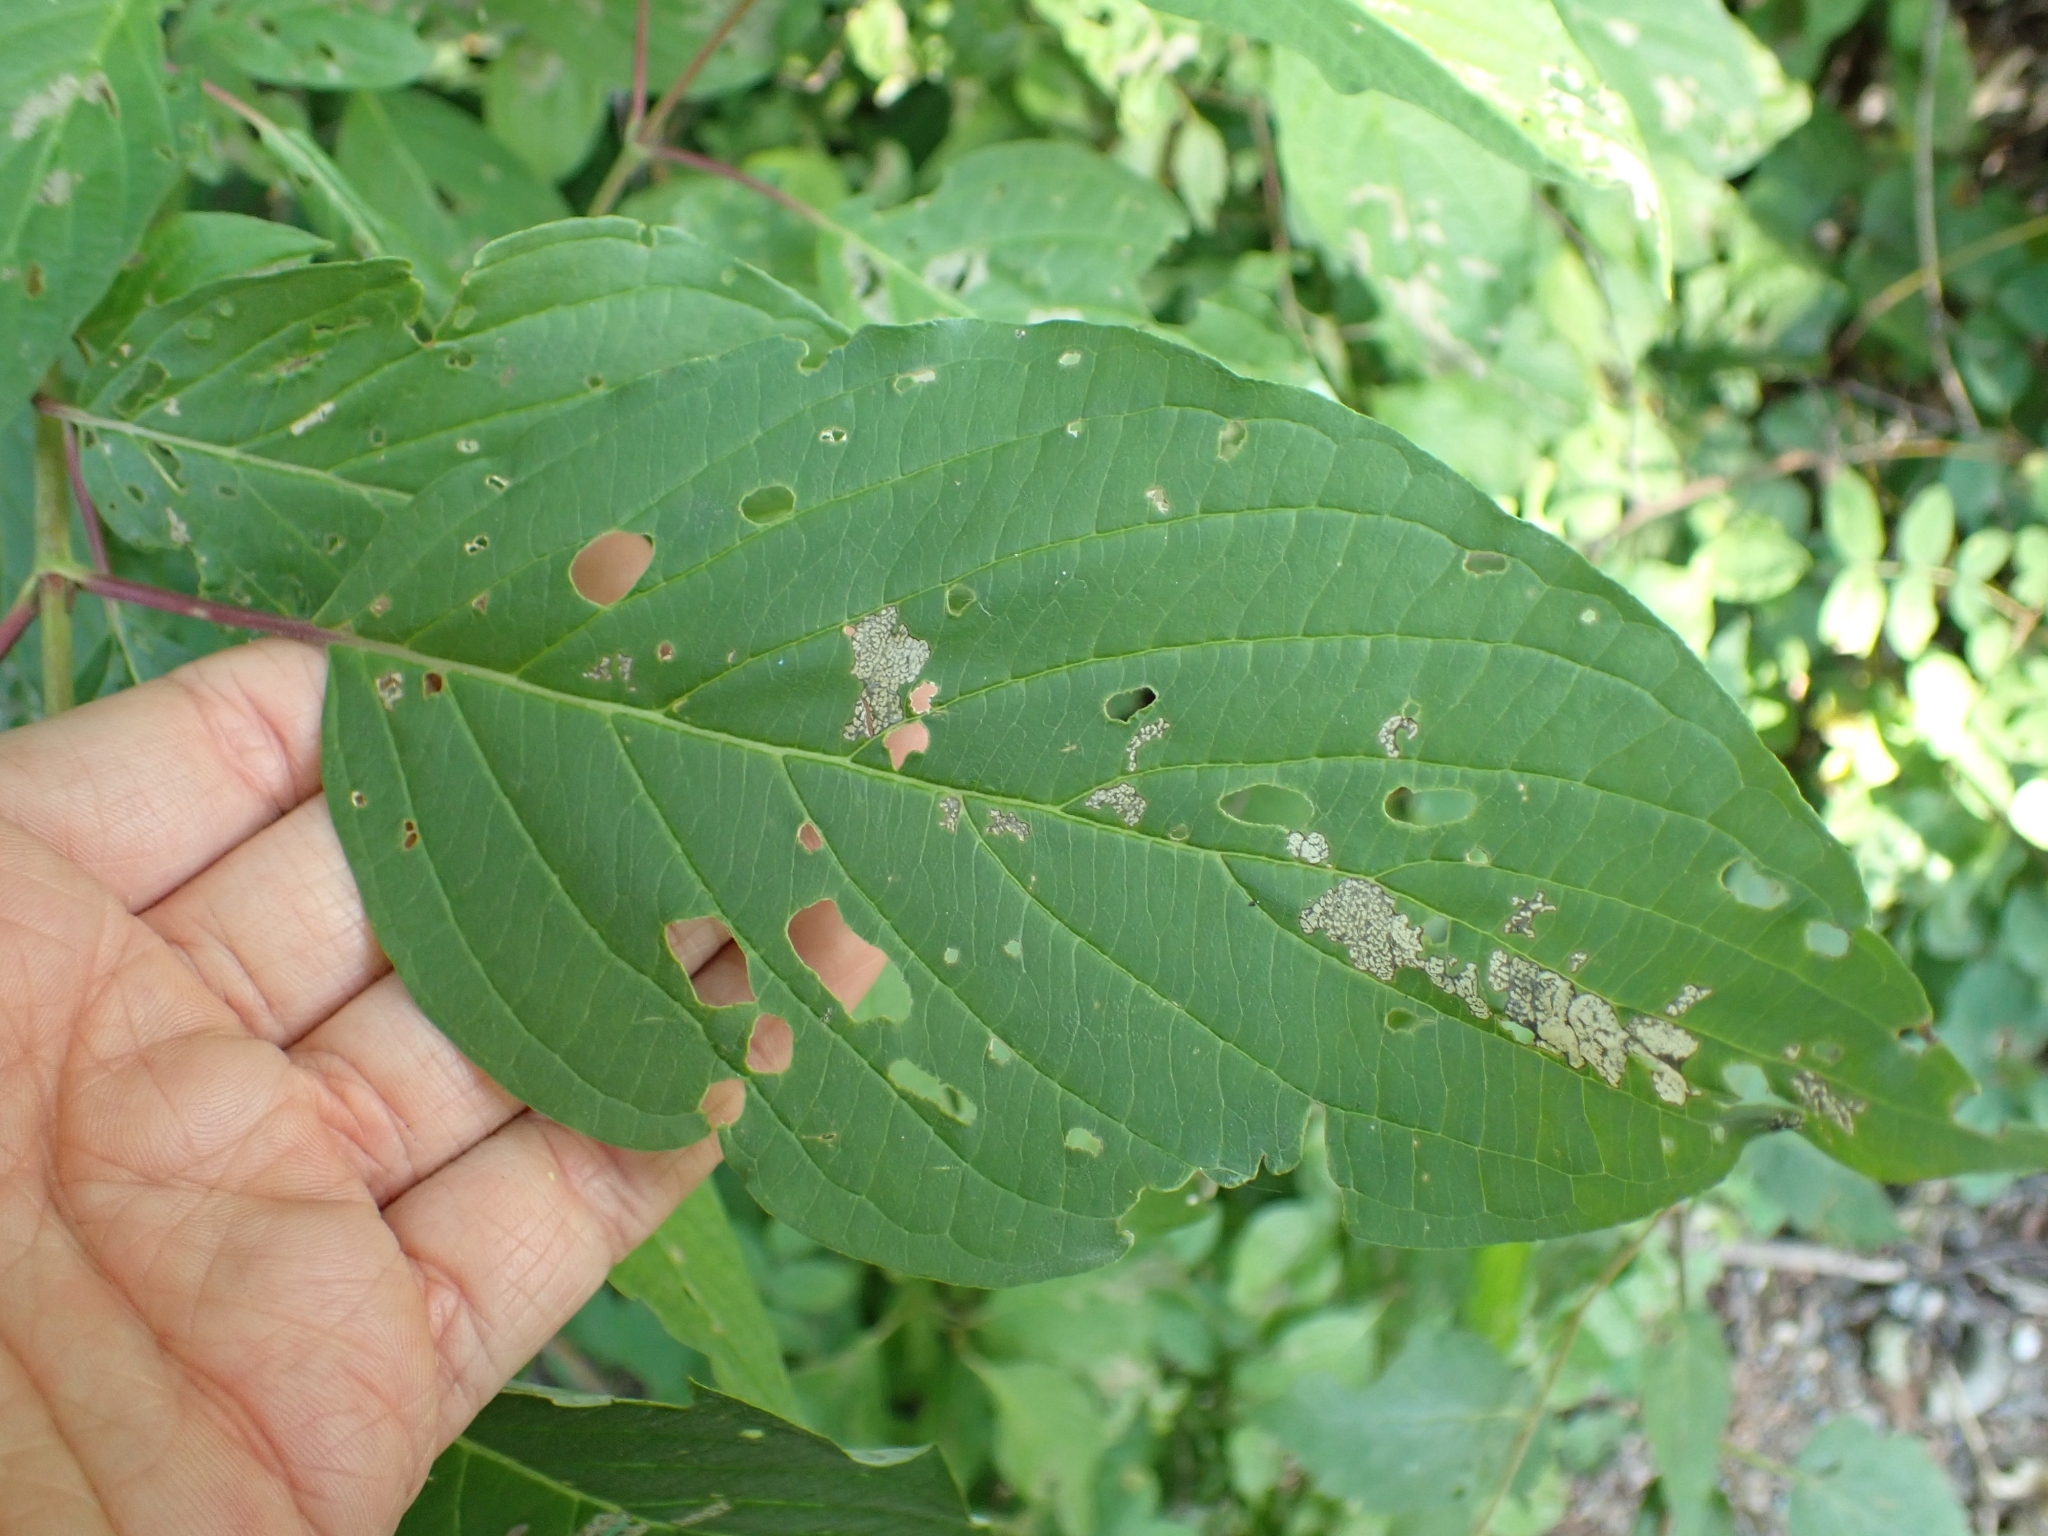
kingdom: Plantae
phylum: Tracheophyta
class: Magnoliopsida
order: Cornales
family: Cornaceae
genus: Cornus
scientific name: Cornus sericea
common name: Red-osier dogwood
